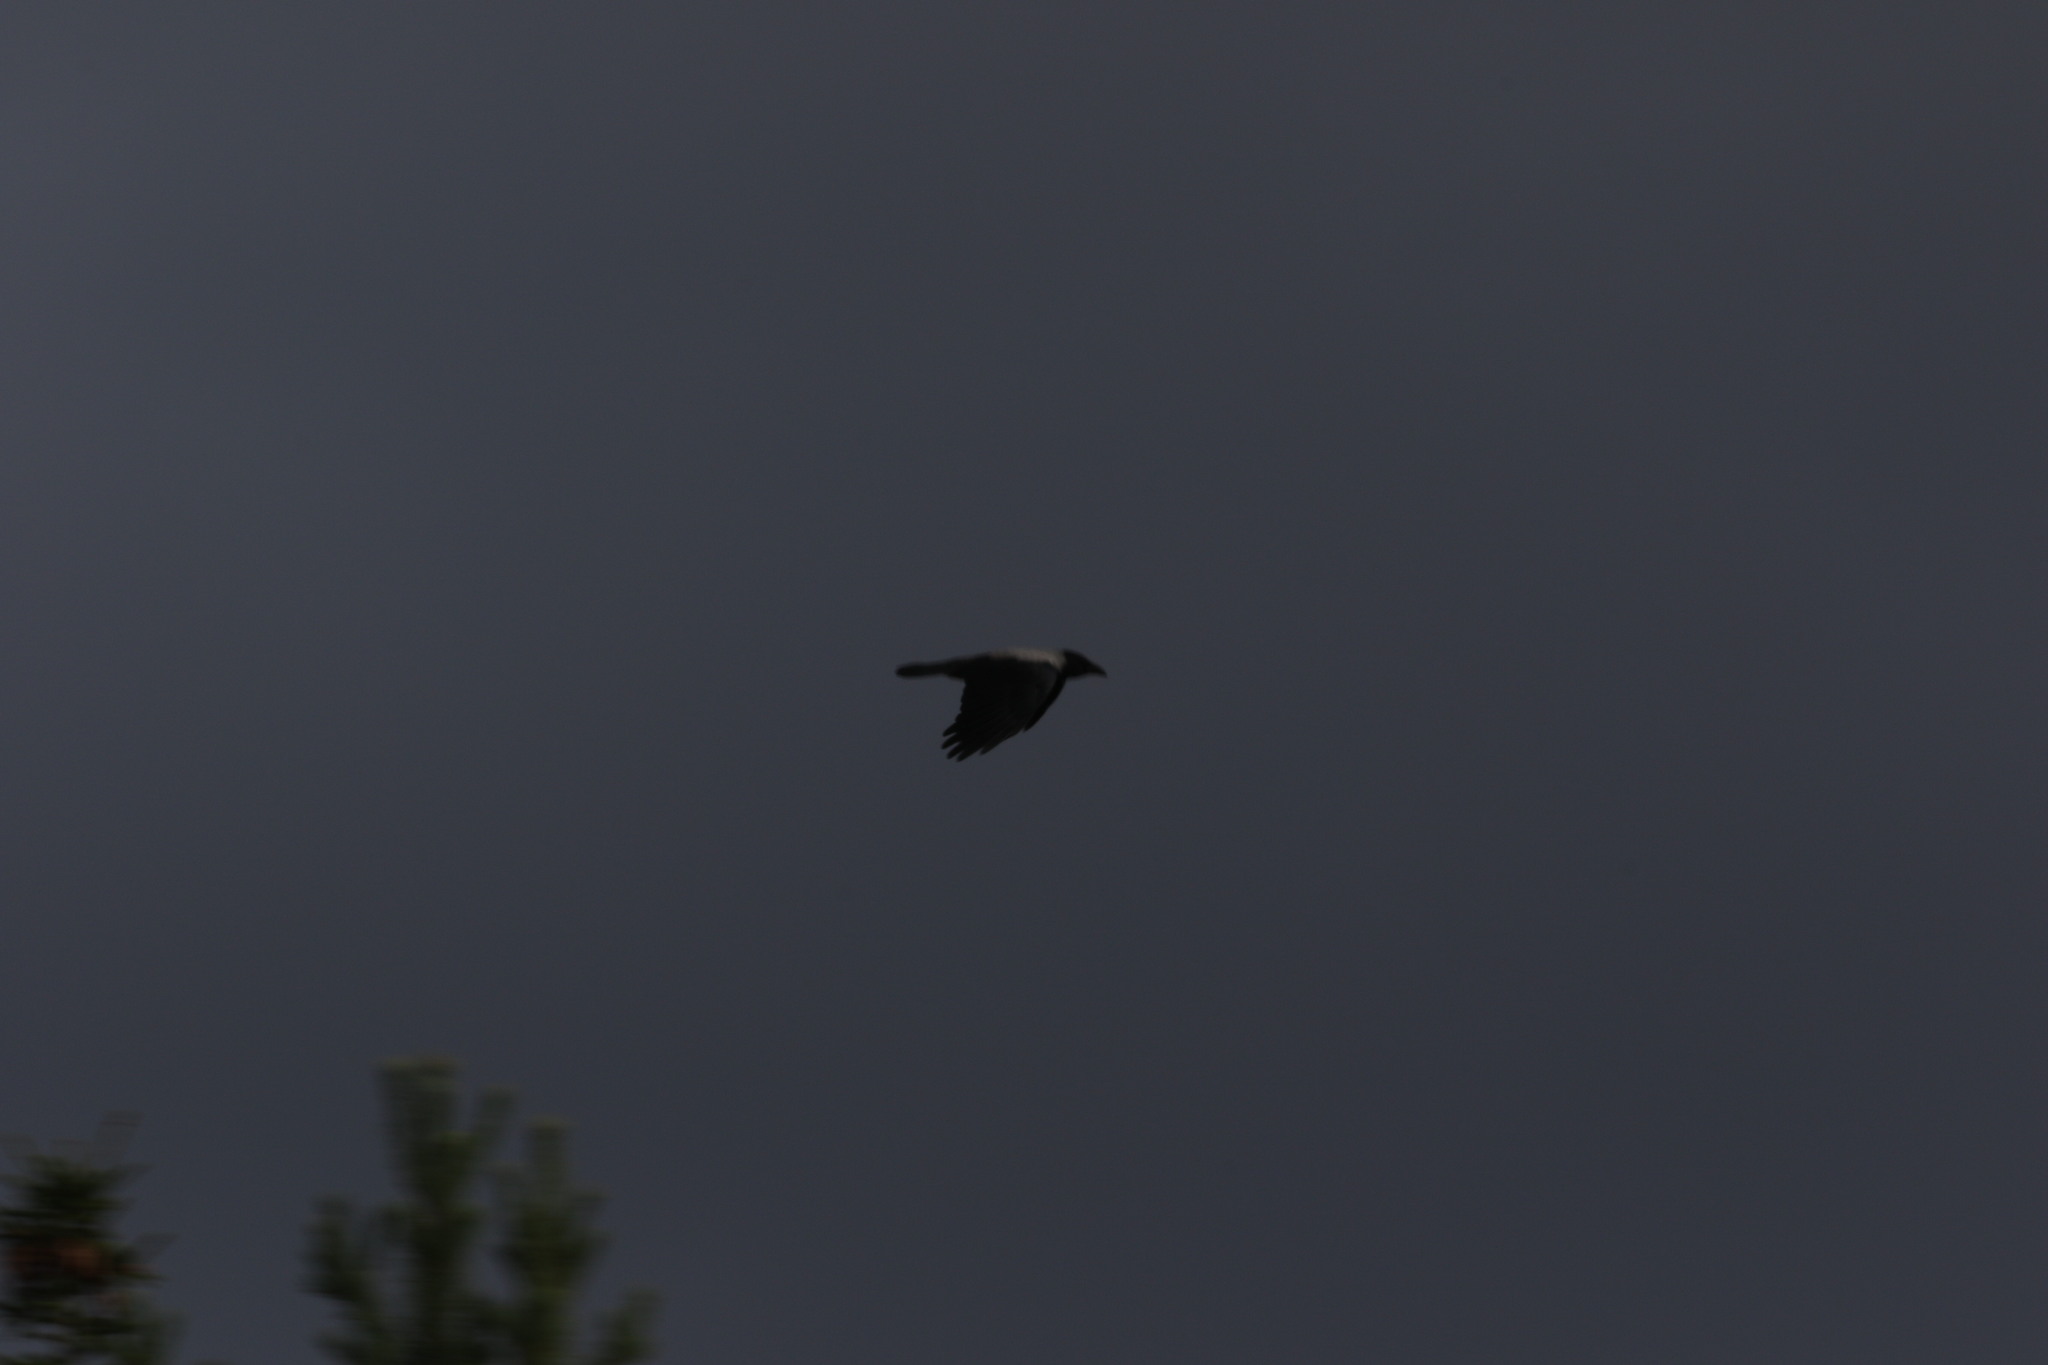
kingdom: Animalia
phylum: Chordata
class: Aves
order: Passeriformes
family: Corvidae
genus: Corvus
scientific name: Corvus cornix
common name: Hooded crow
